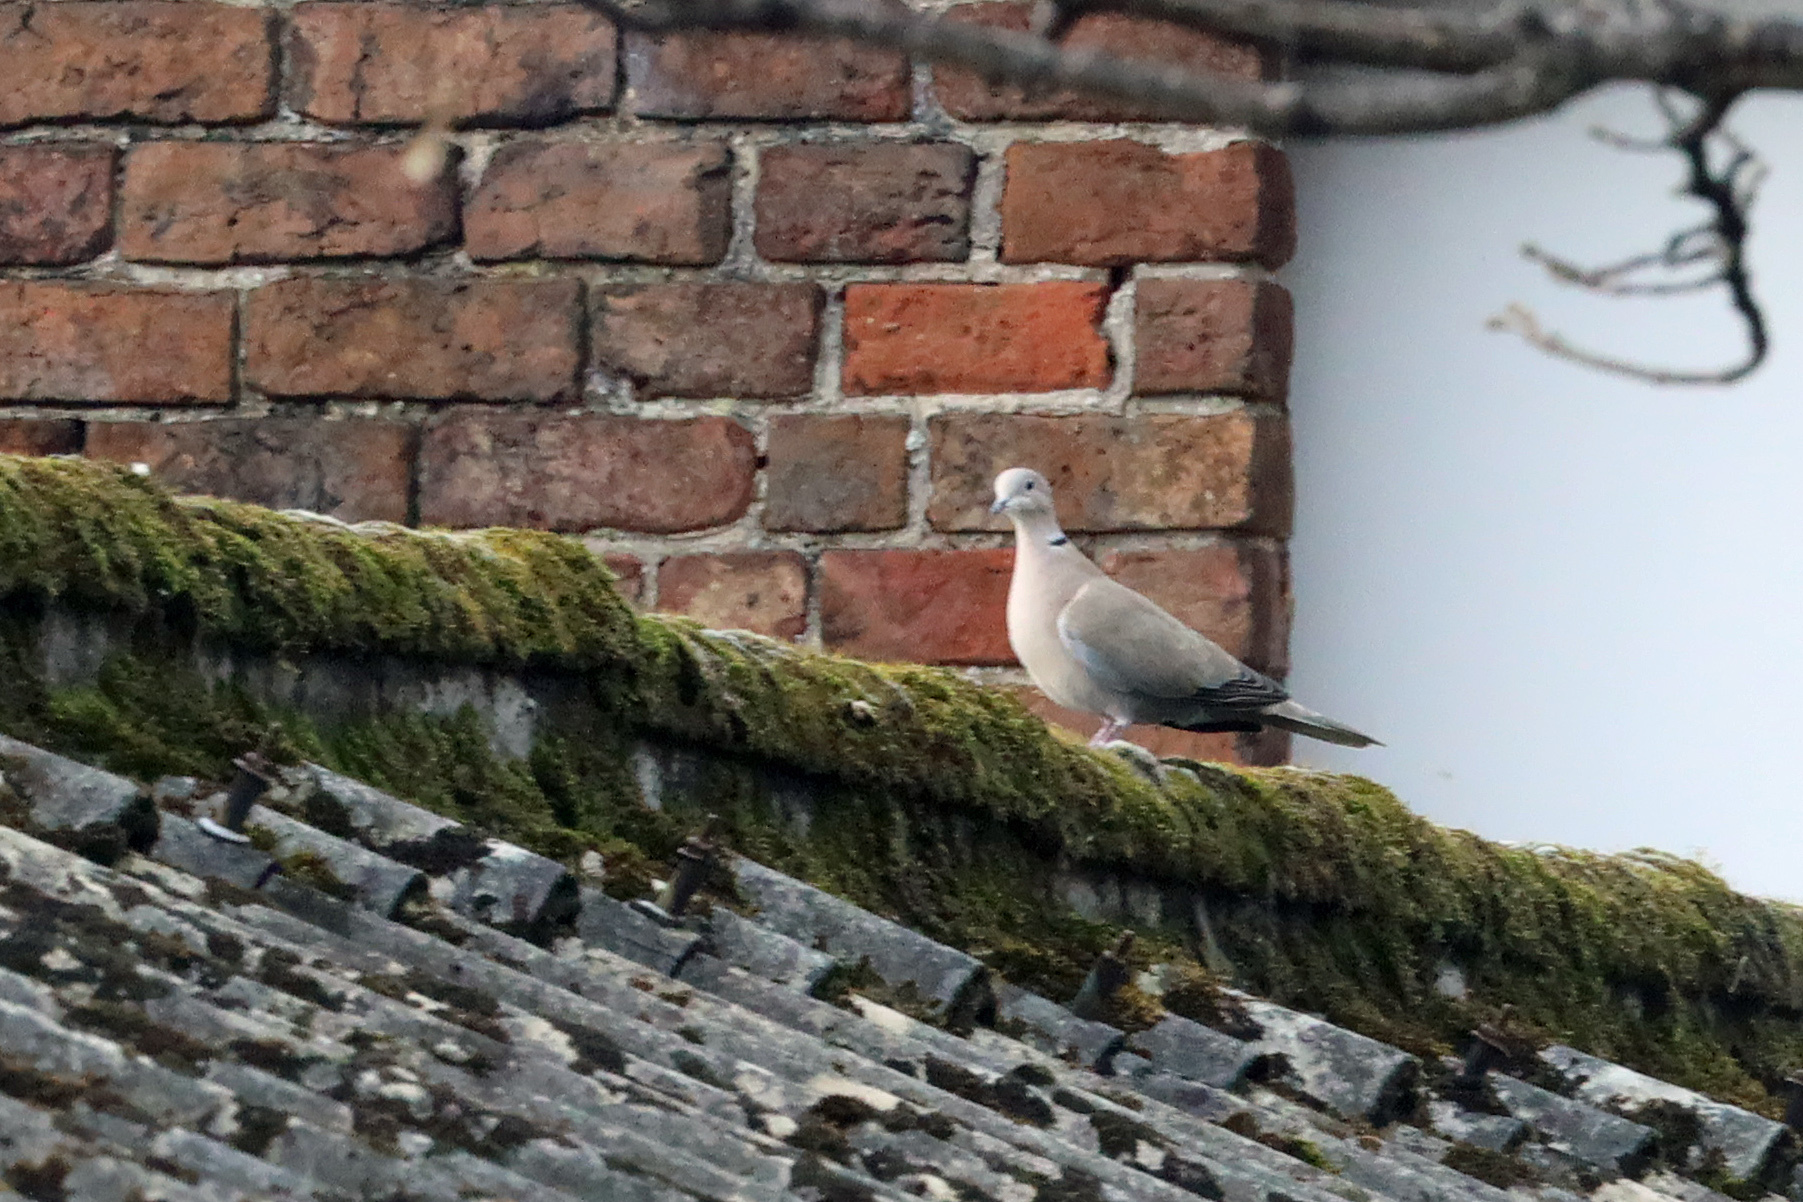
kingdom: Animalia
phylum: Chordata
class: Aves
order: Columbiformes
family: Columbidae
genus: Streptopelia
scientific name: Streptopelia decaocto
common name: Eurasian collared dove
